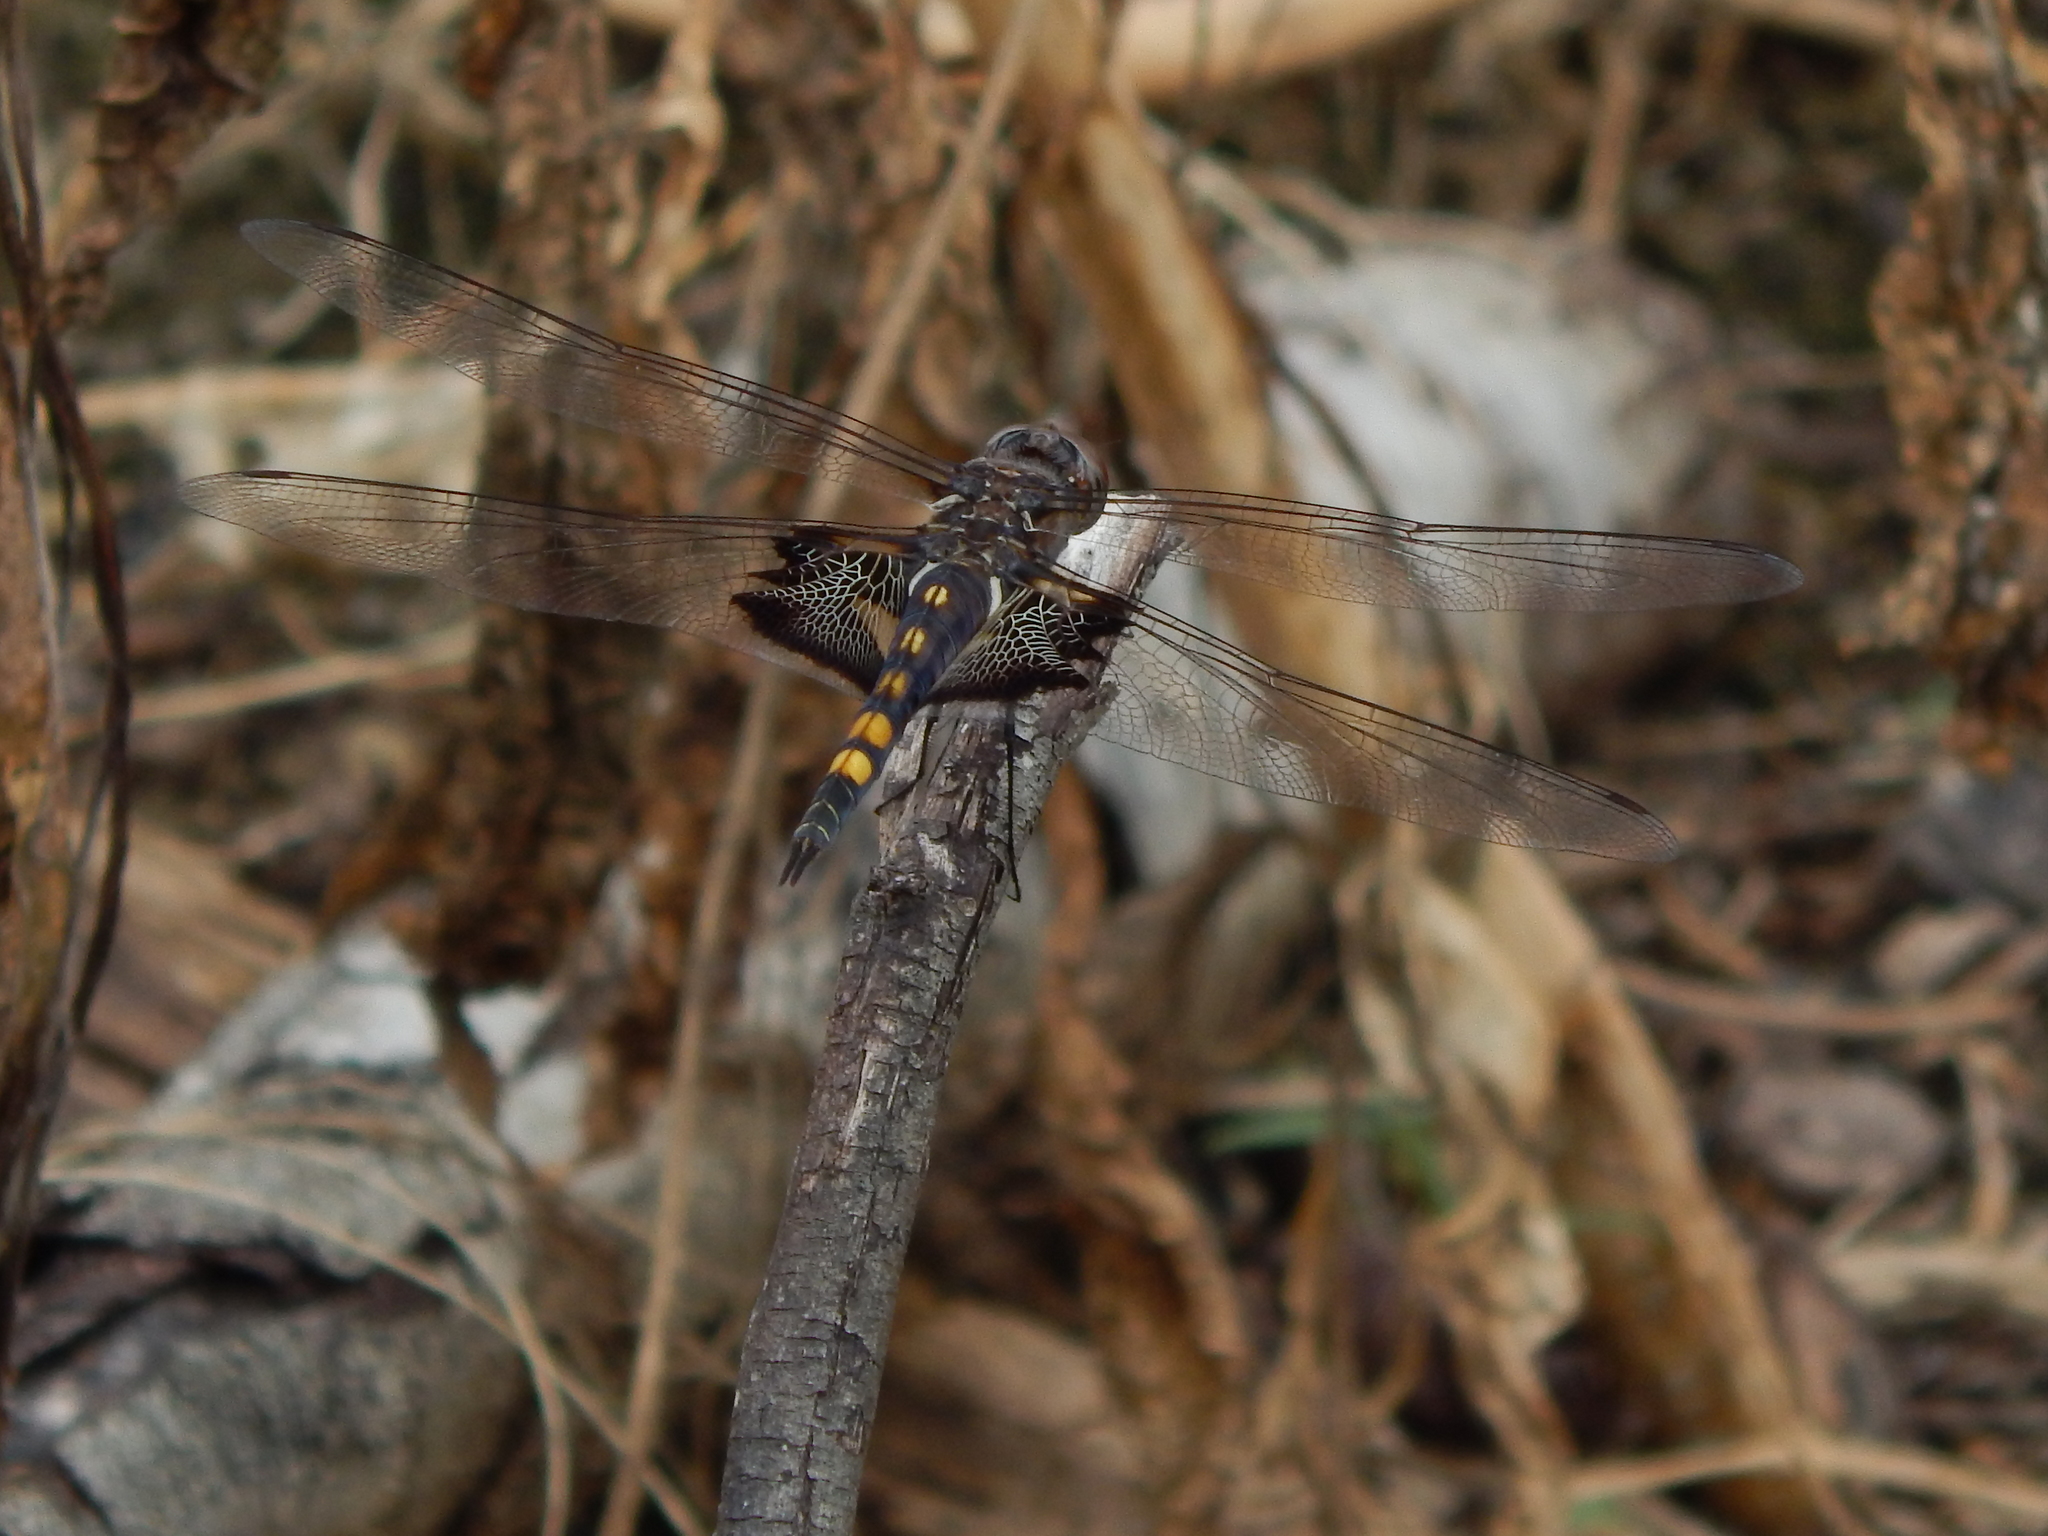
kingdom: Animalia
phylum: Arthropoda
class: Insecta
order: Odonata
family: Libellulidae
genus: Tramea
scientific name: Tramea lacerata
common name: Black saddlebags
